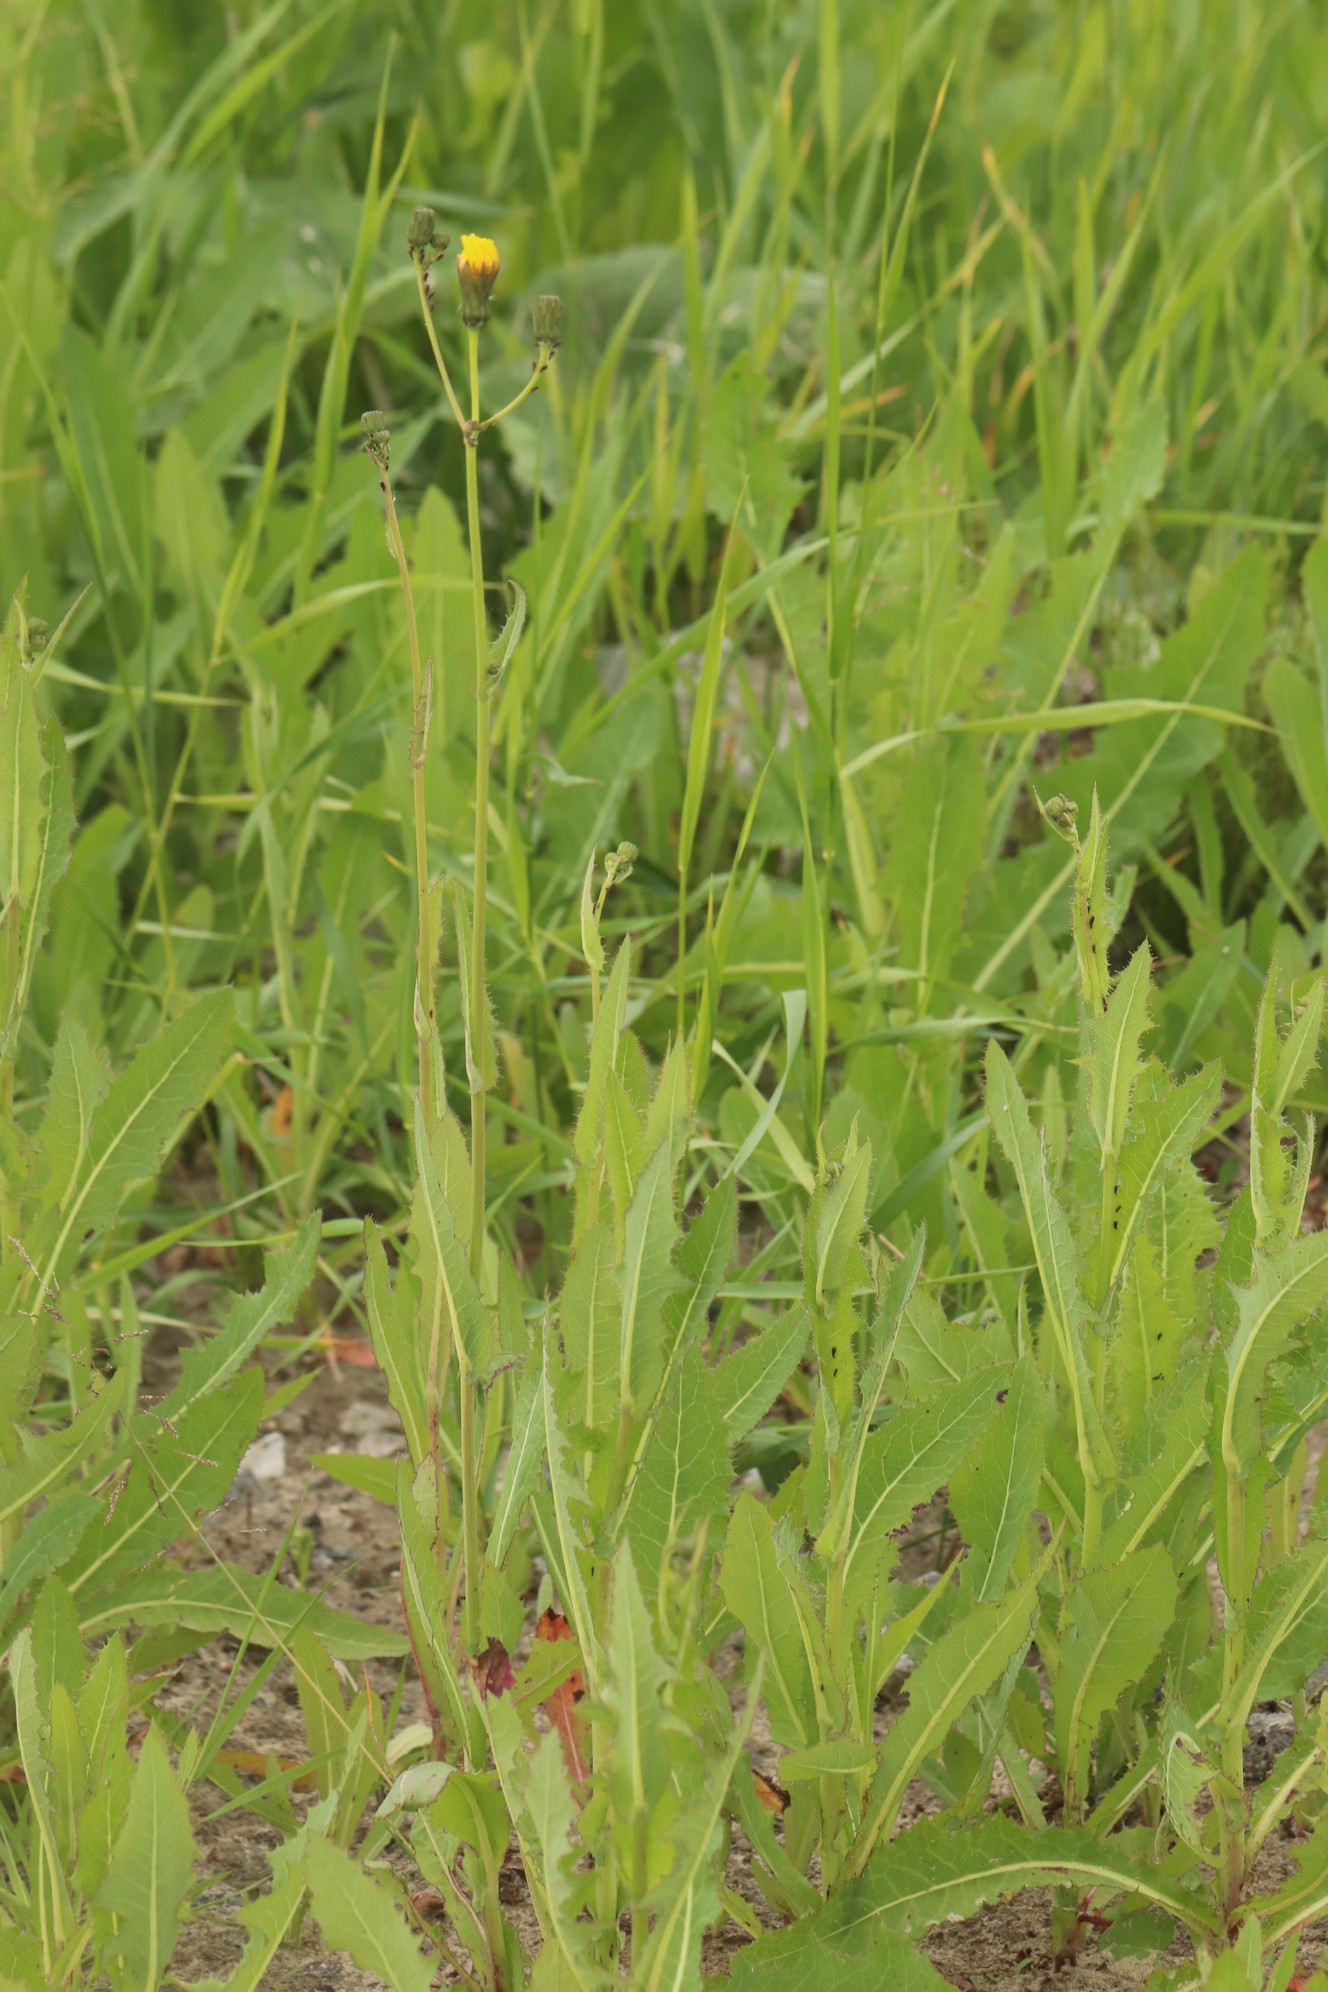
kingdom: Plantae
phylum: Tracheophyta
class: Magnoliopsida
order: Asterales
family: Asteraceae
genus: Sonchus
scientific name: Sonchus arvensis
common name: Perennial sow-thistle
